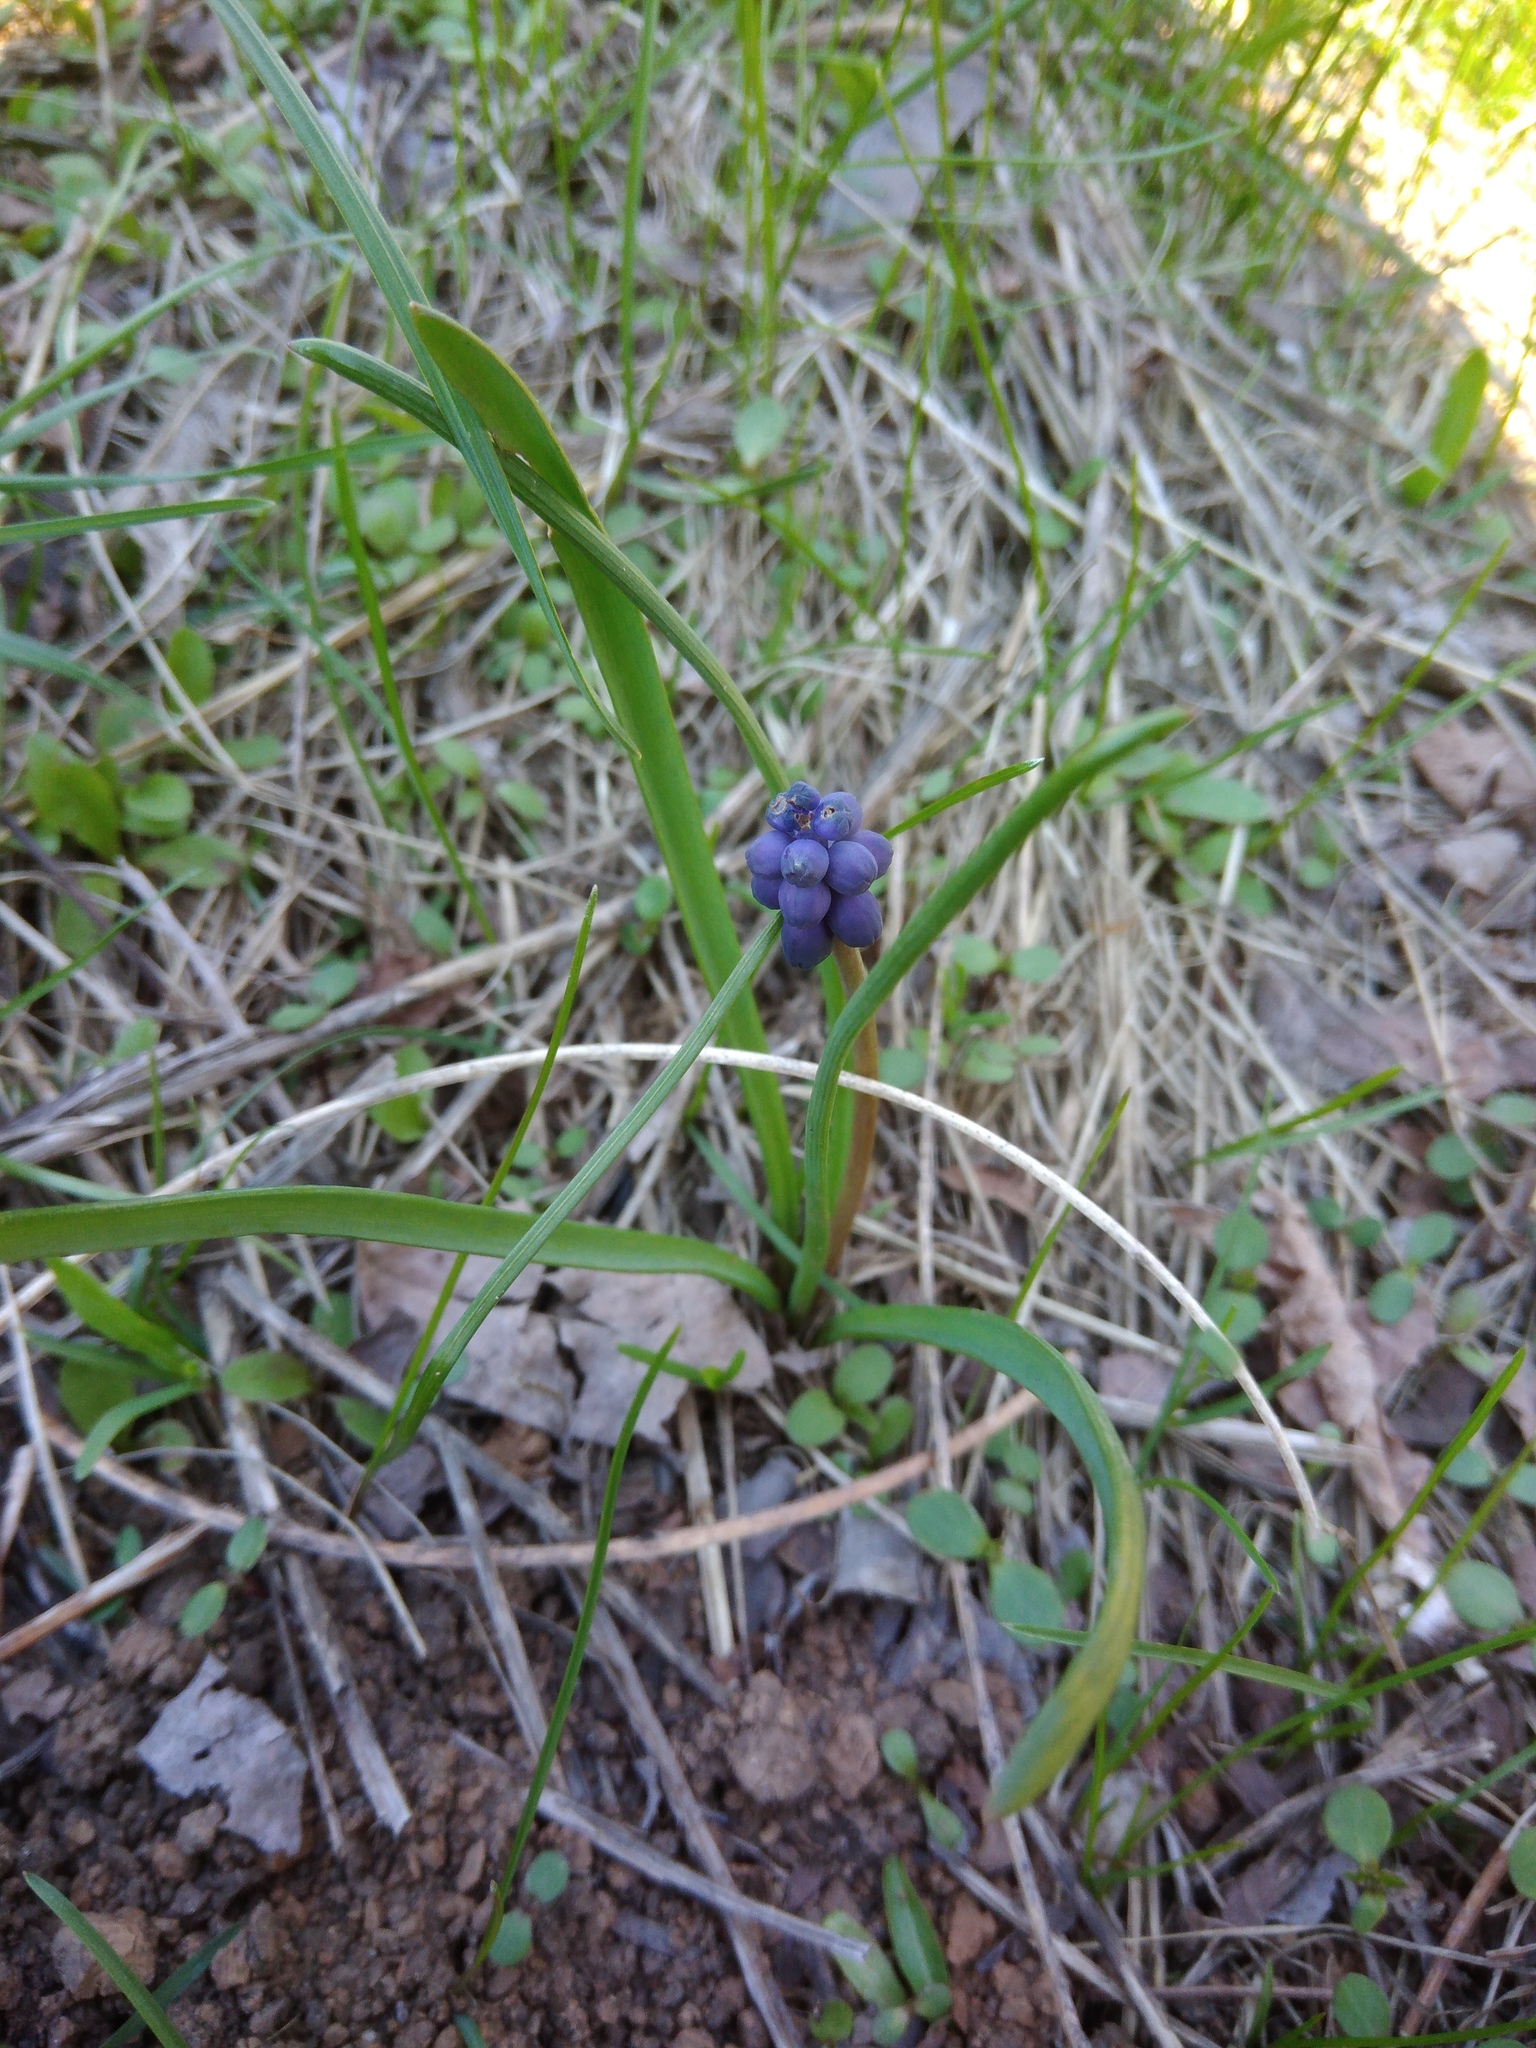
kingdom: Plantae
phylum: Tracheophyta
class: Liliopsida
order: Asparagales
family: Asparagaceae
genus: Muscari
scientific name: Muscari neglectum
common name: Grape-hyacinth
